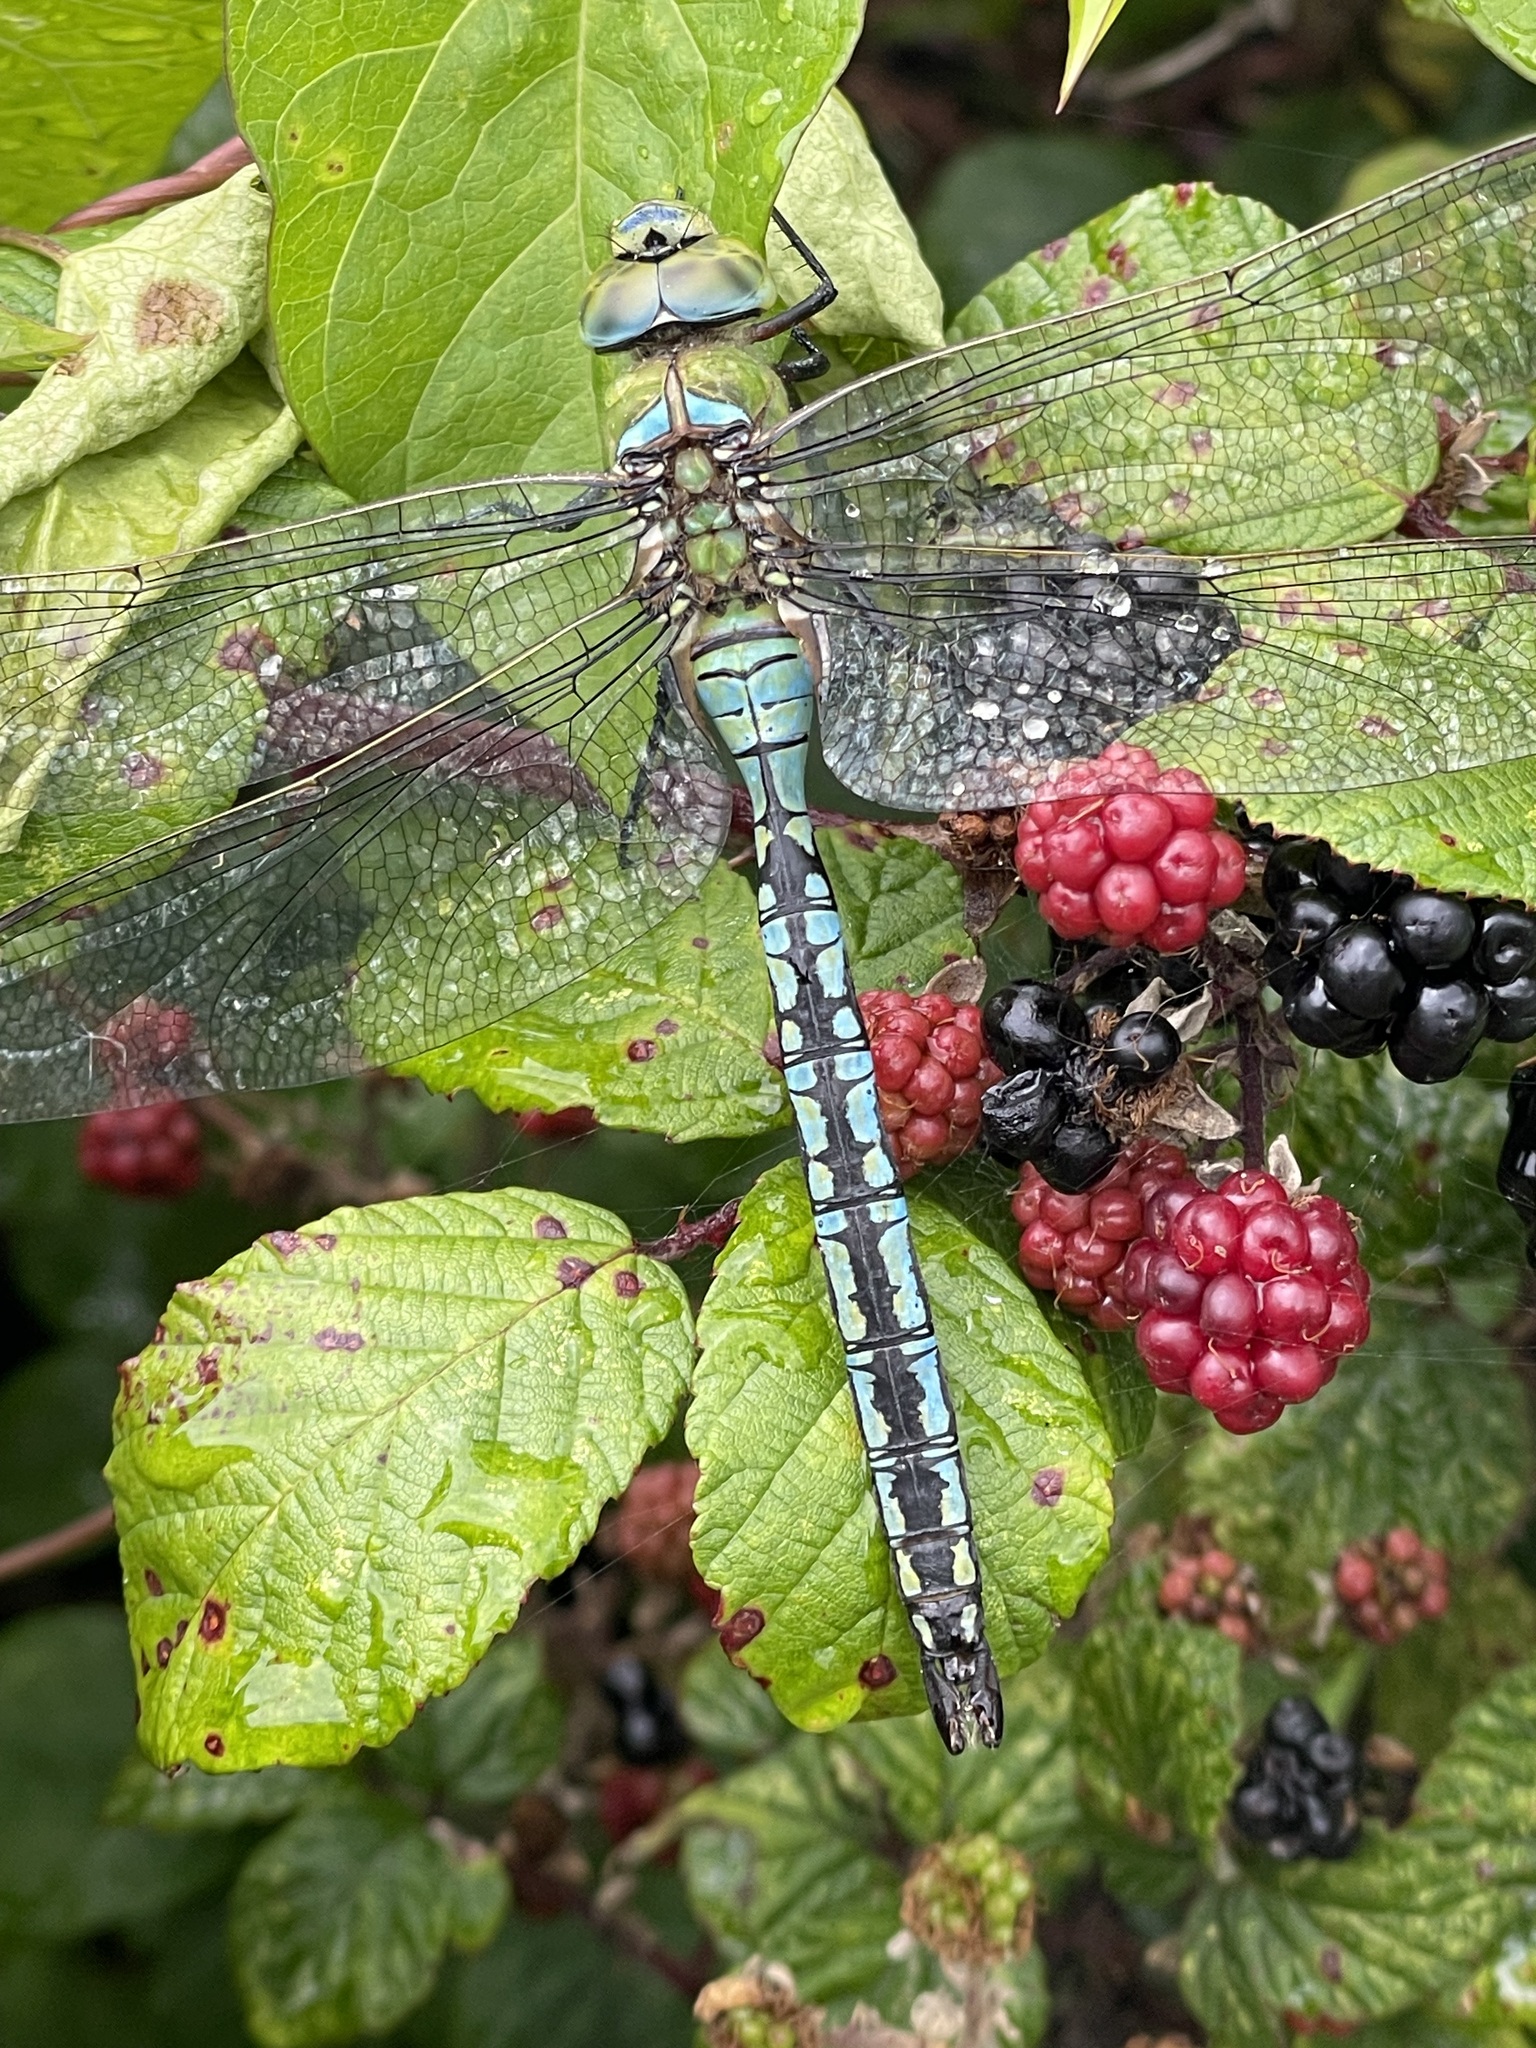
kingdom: Animalia
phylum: Arthropoda
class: Insecta
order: Odonata
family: Aeshnidae
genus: Anax
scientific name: Anax imperator
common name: Emperor dragonfly
